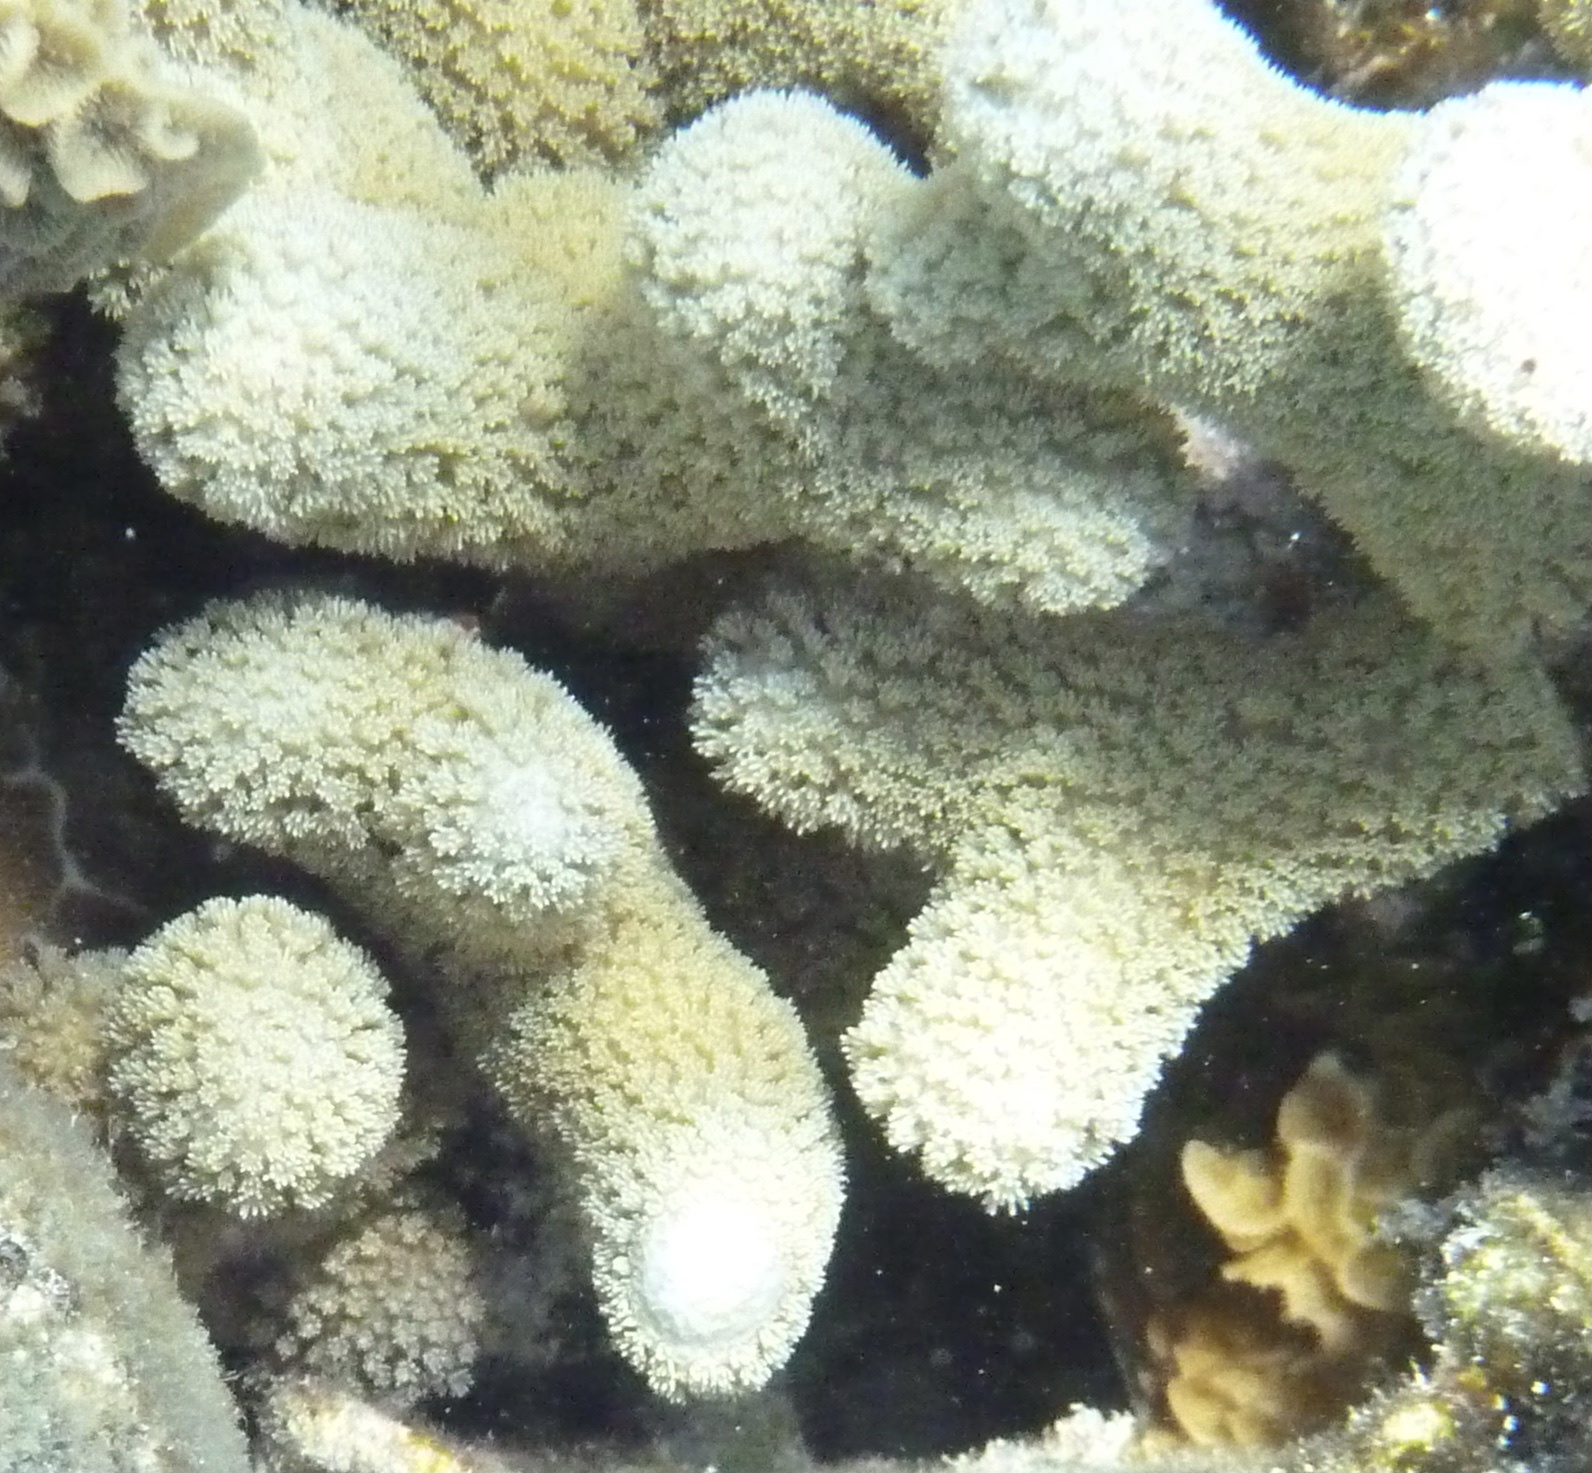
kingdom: Animalia
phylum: Cnidaria
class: Anthozoa
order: Scleractinia
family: Poritidae
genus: Porites
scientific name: Porites porites
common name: Finger coral
